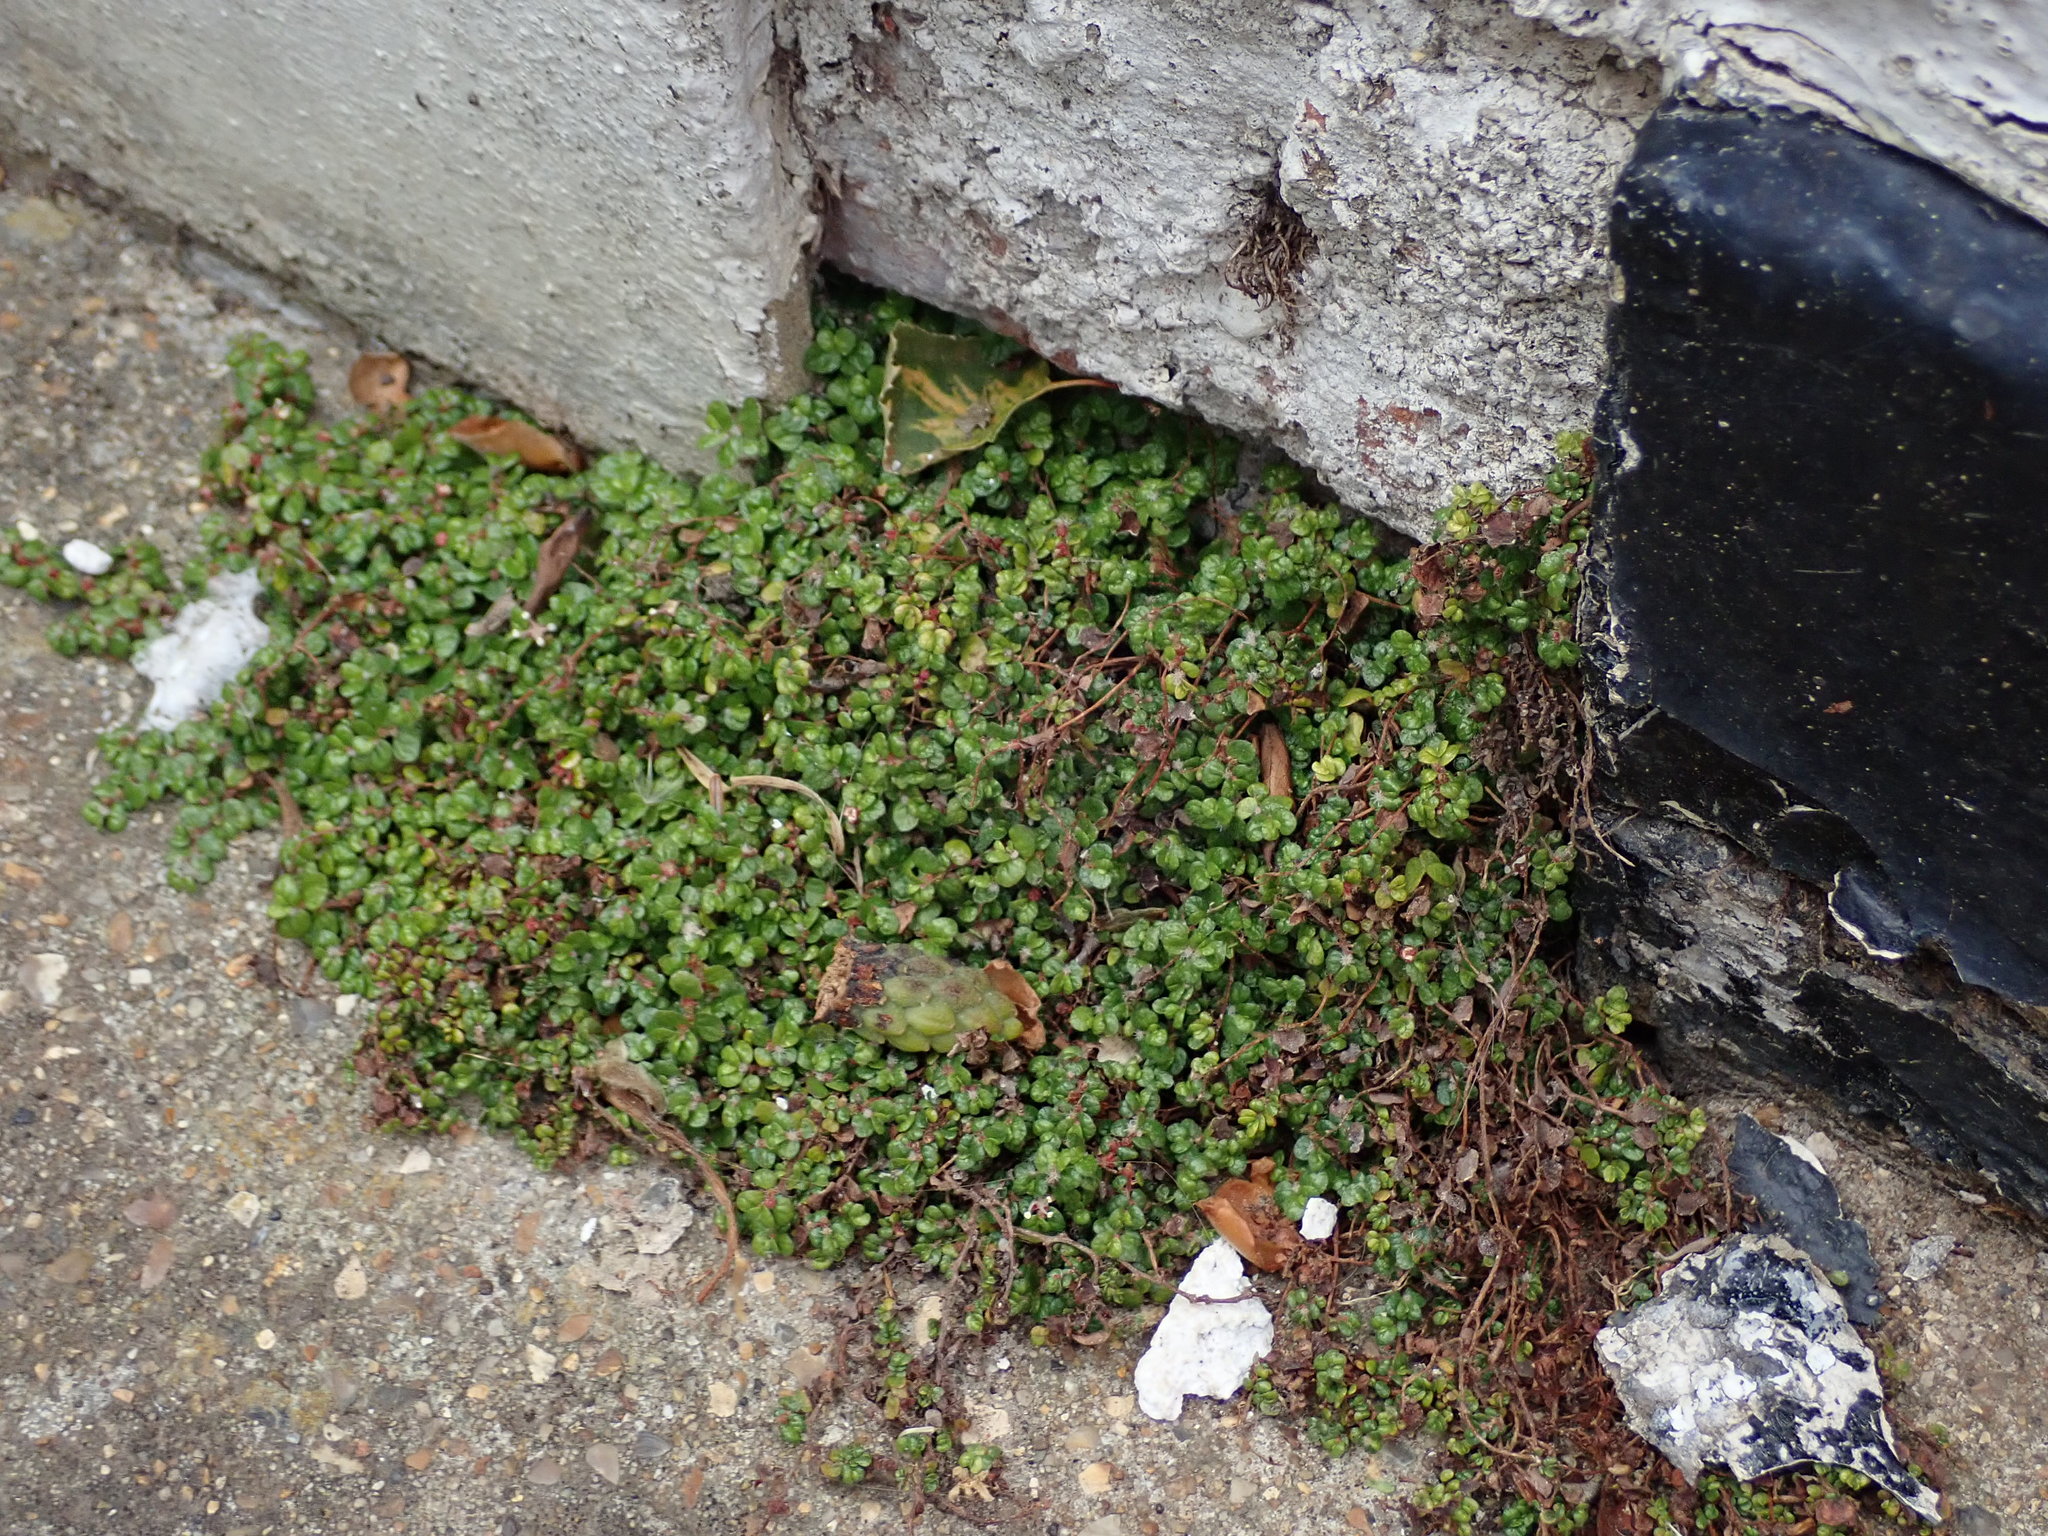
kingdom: Plantae
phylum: Tracheophyta
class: Magnoliopsida
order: Rosales
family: Urticaceae
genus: Soleirolia
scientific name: Soleirolia soleirolii
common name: Mind-your-own-business
